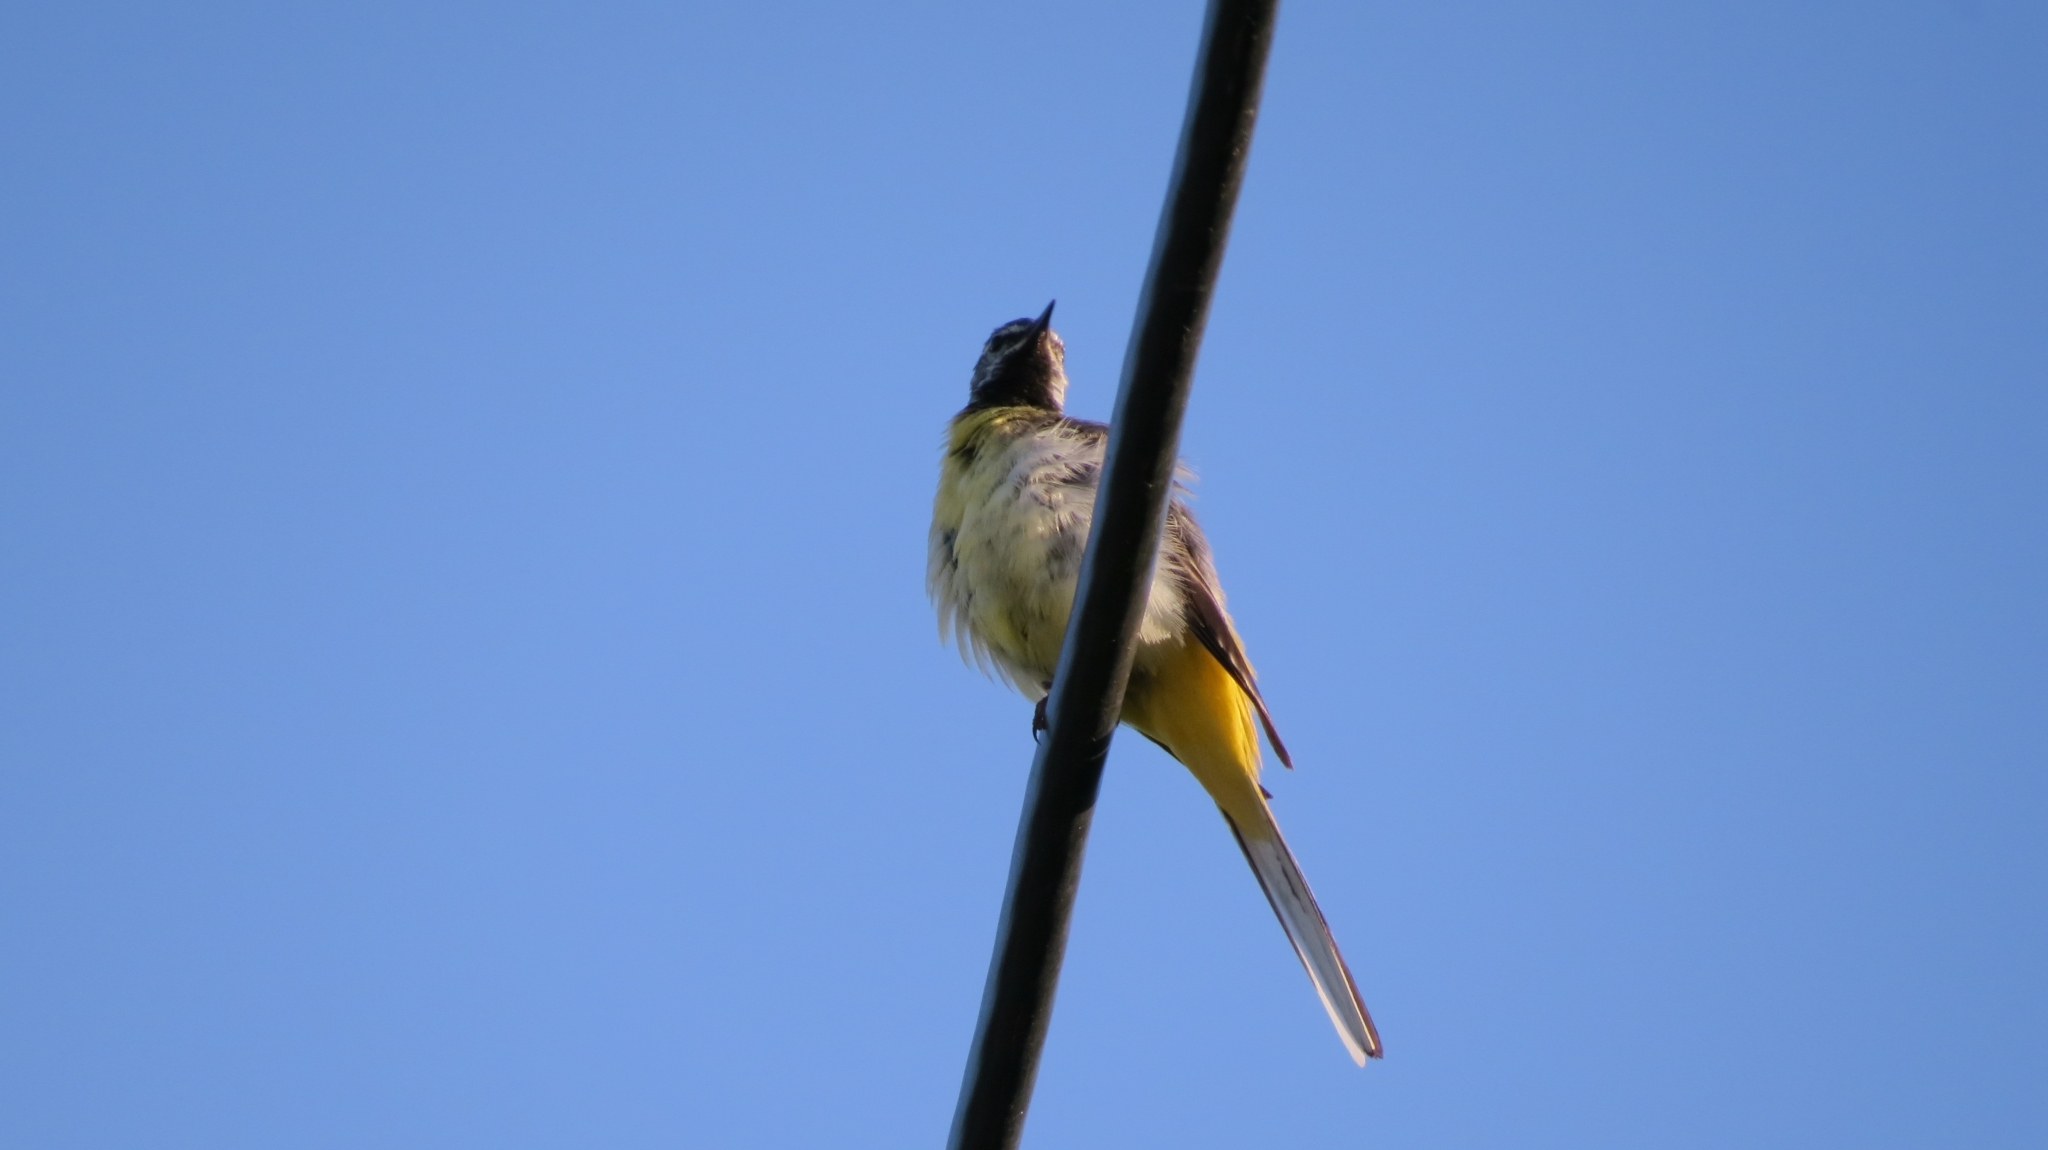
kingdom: Animalia
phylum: Chordata
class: Aves
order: Passeriformes
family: Motacillidae
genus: Motacilla
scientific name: Motacilla cinerea
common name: Grey wagtail
